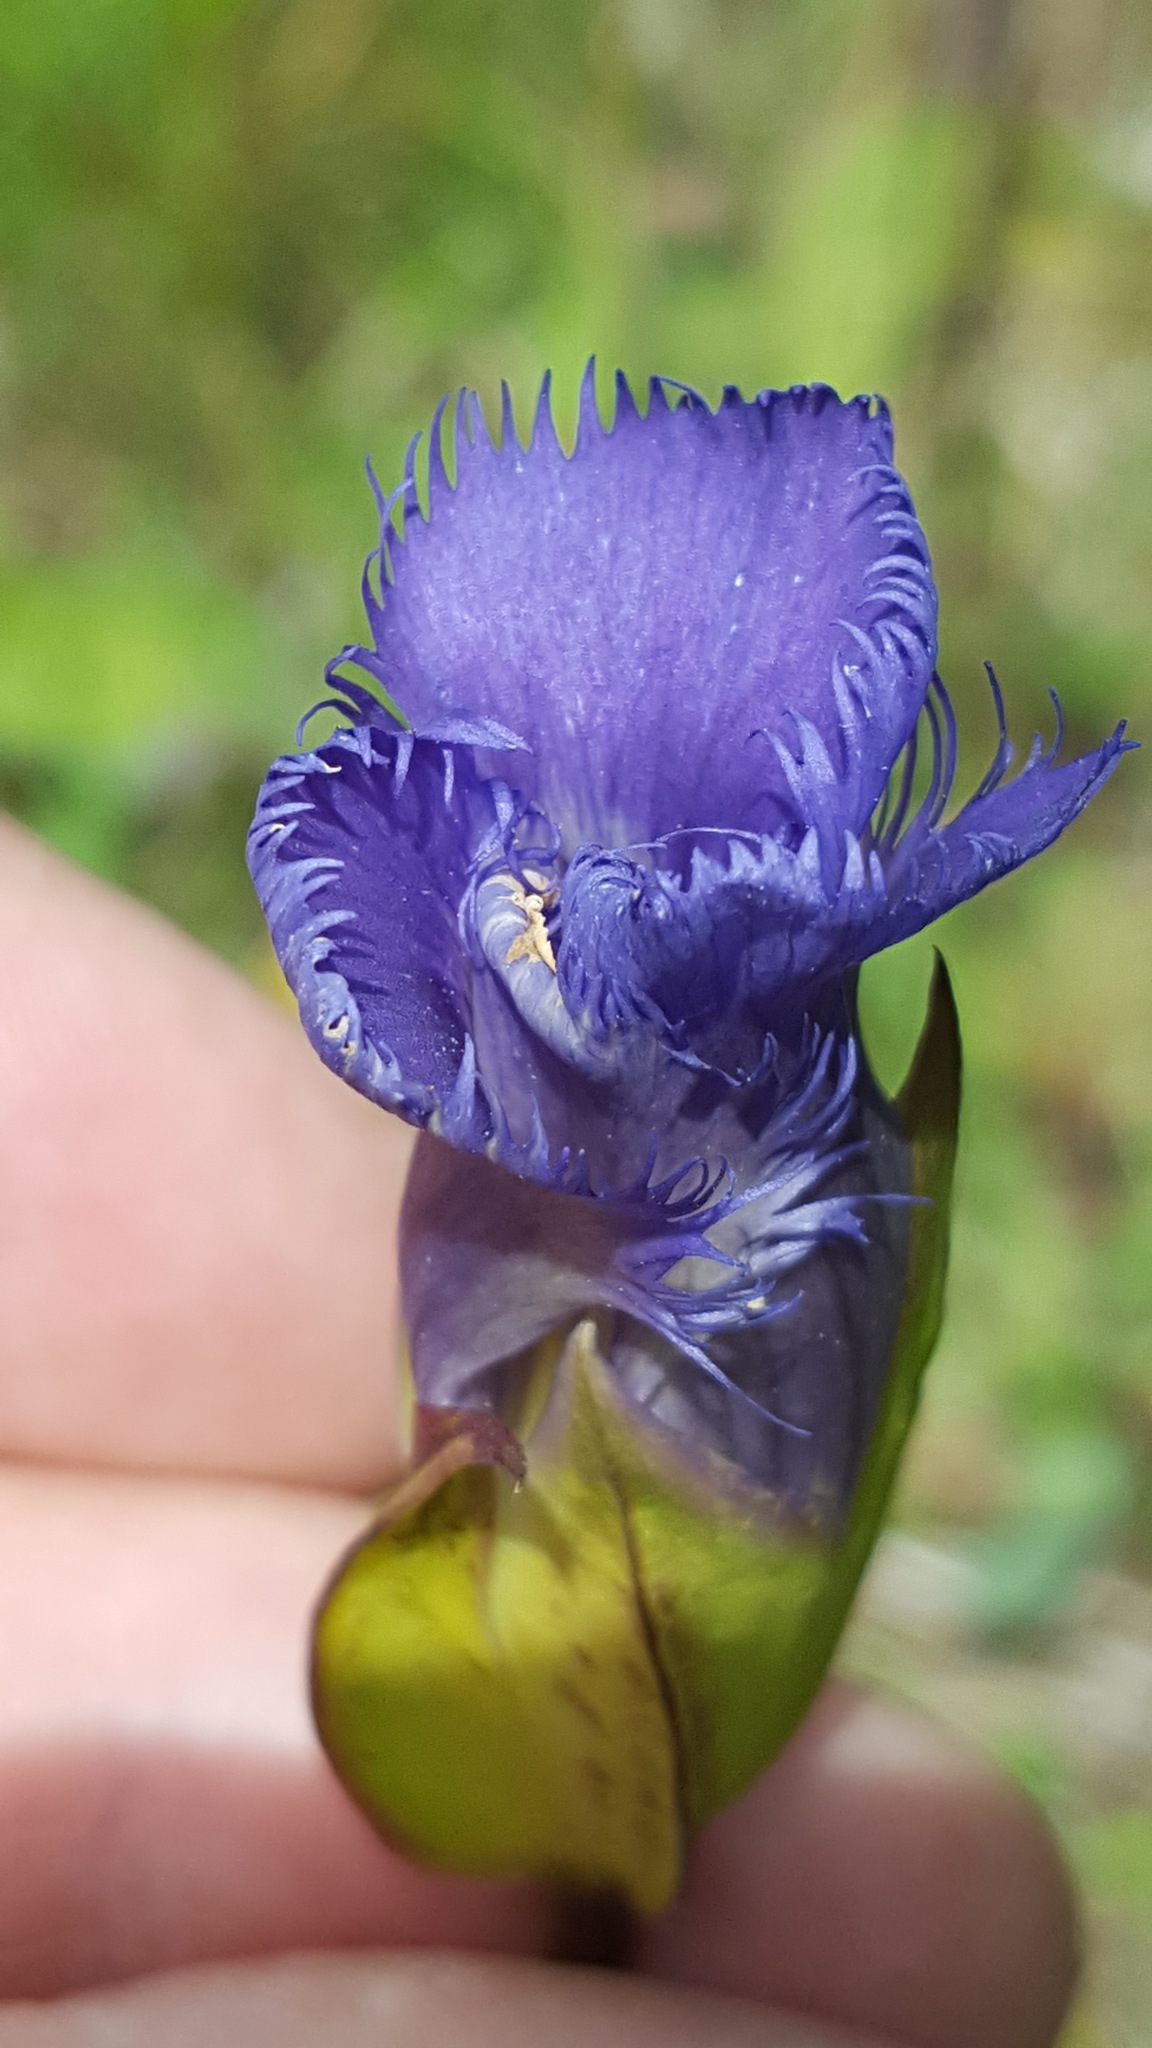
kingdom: Plantae
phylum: Tracheophyta
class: Magnoliopsida
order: Gentianales
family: Gentianaceae
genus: Gentianopsis
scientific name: Gentianopsis crinita
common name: Fringed-gentian
